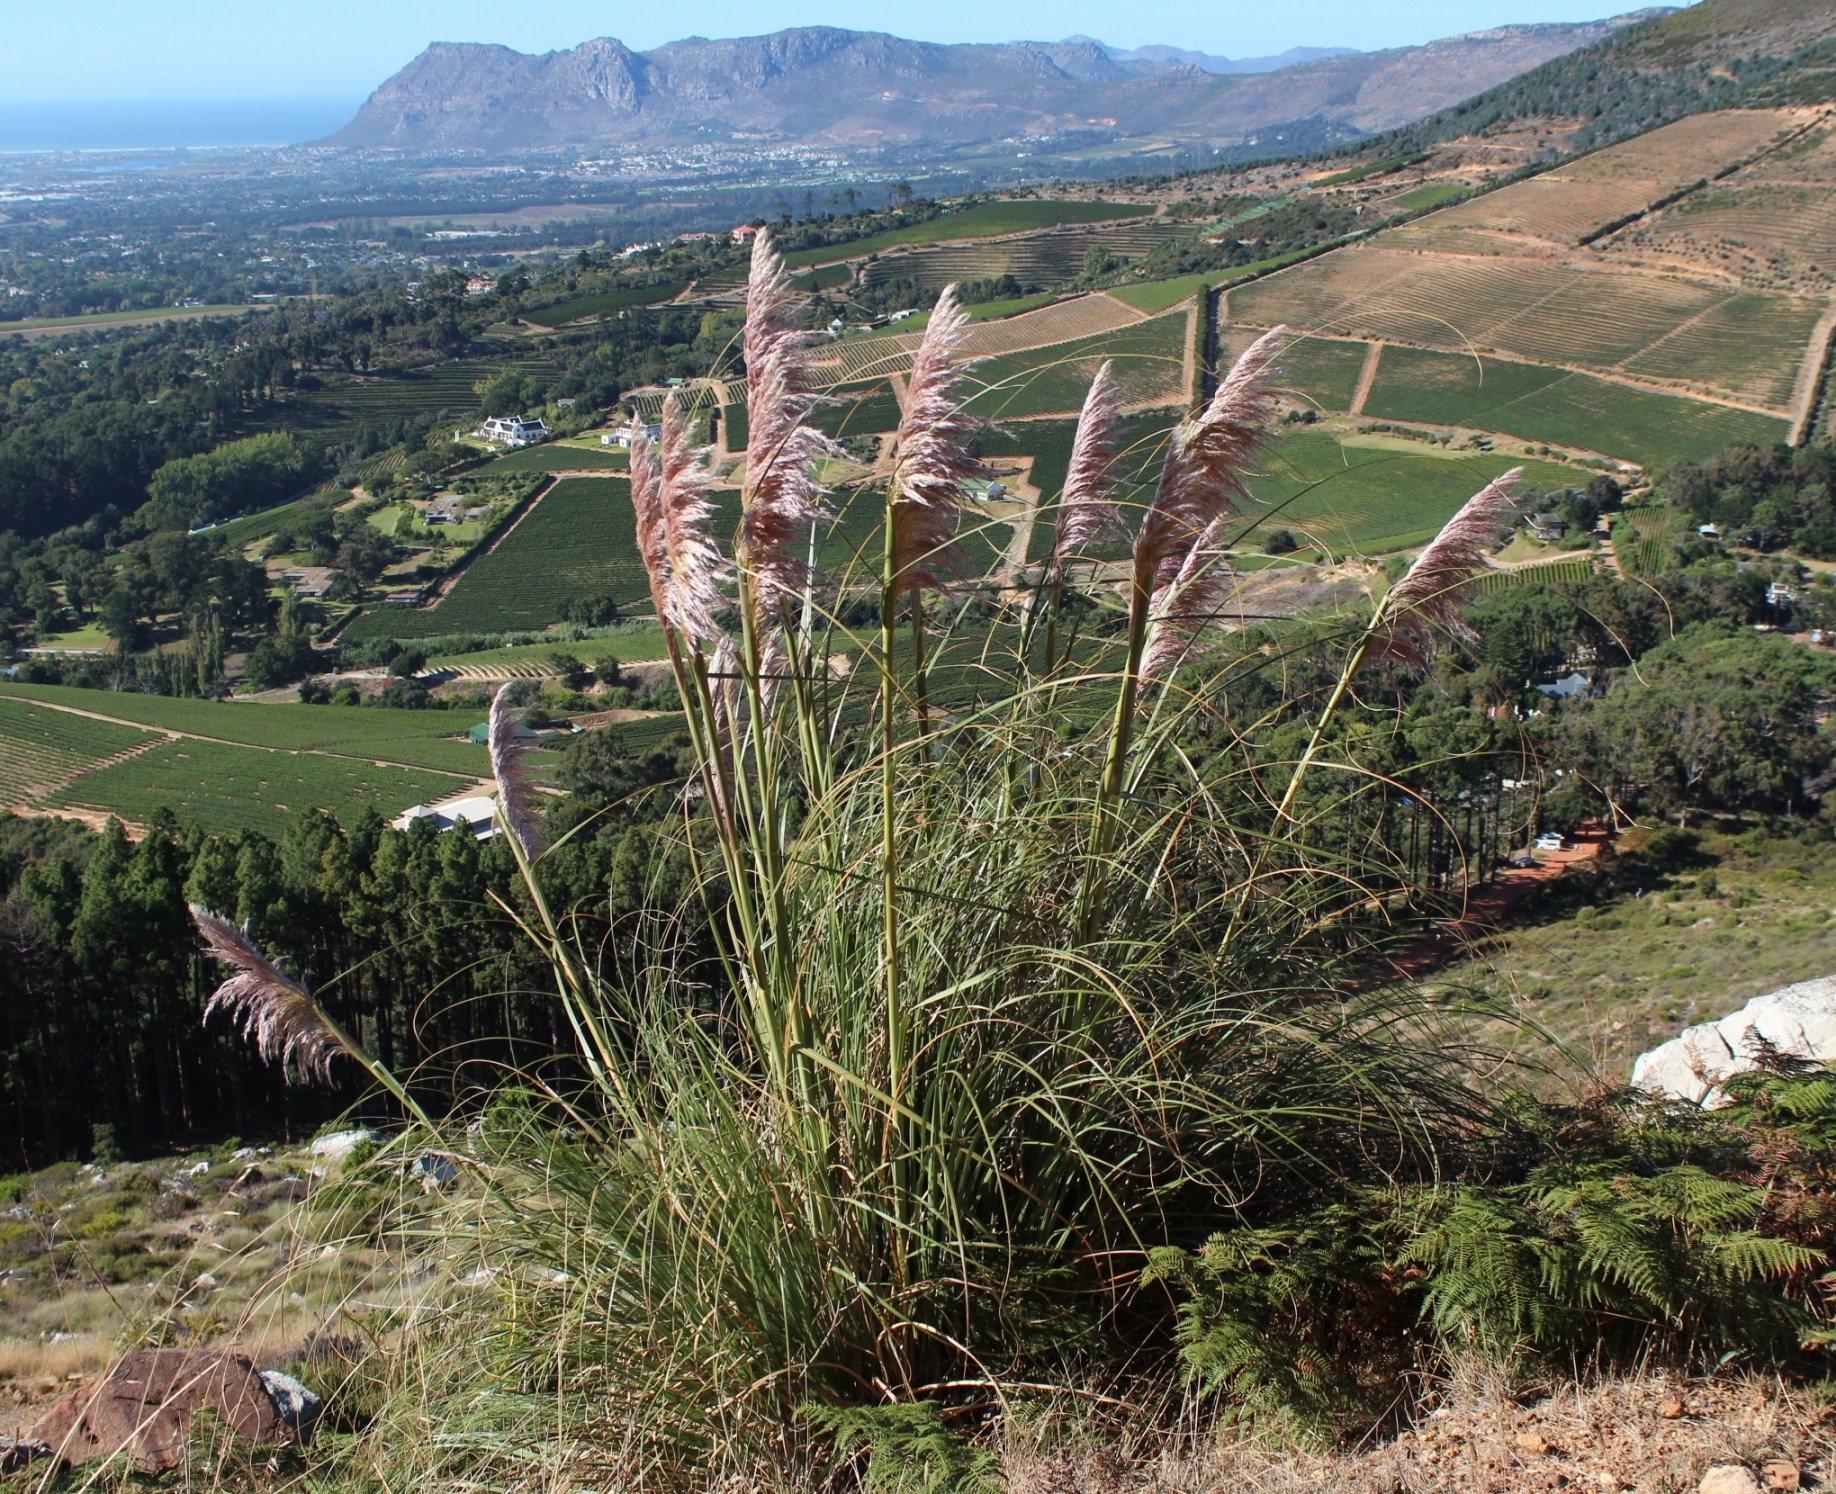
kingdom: Plantae
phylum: Tracheophyta
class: Liliopsida
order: Poales
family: Poaceae
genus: Cortaderia
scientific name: Cortaderia selloana
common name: Uruguayan pampas grass
